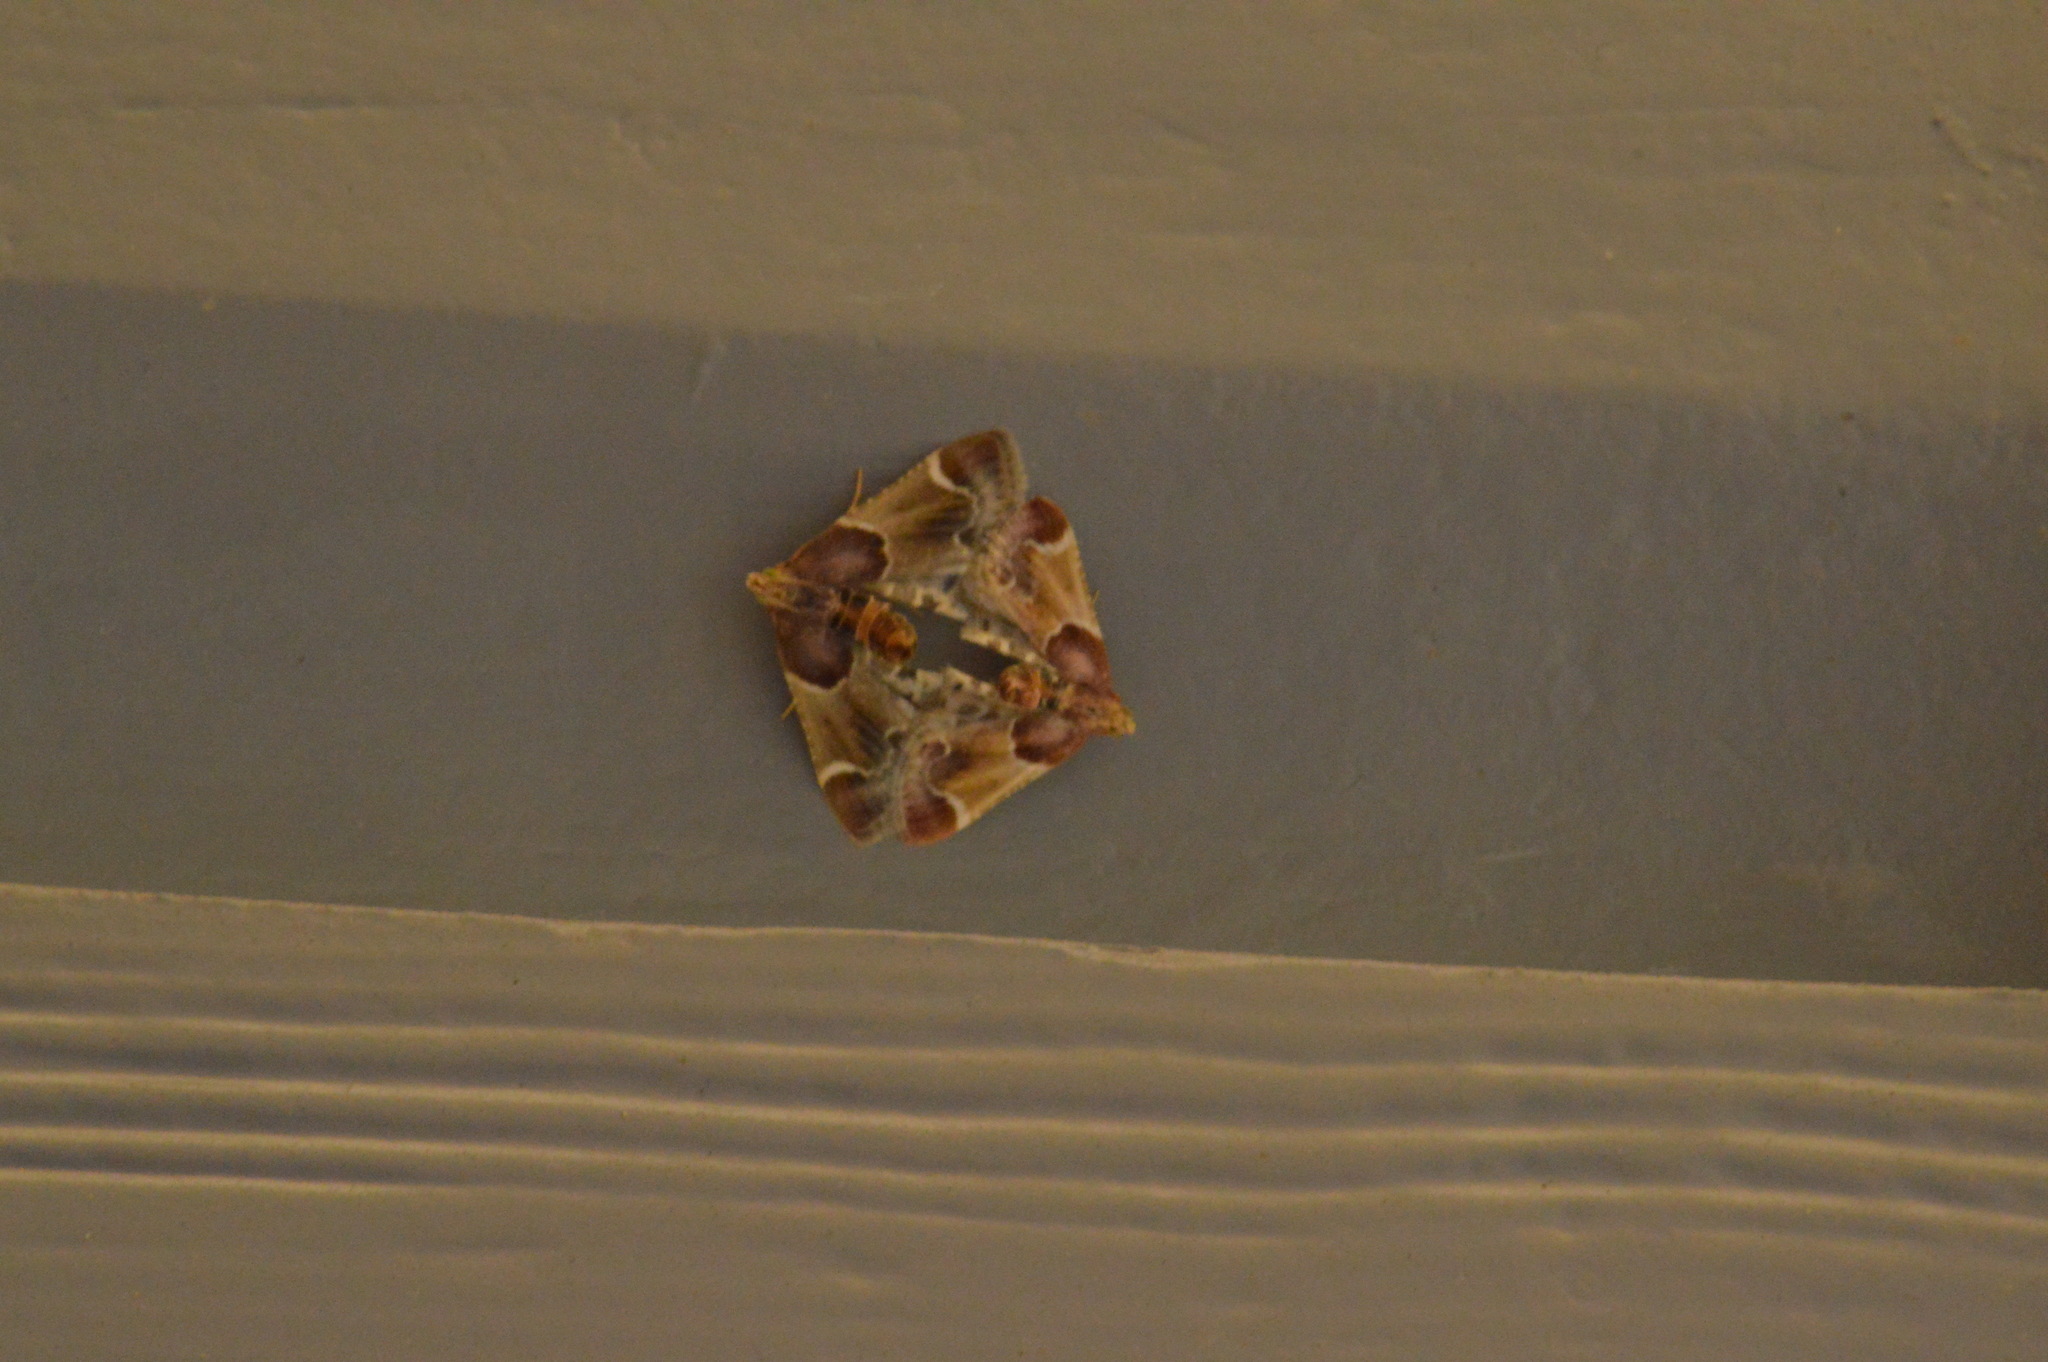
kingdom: Animalia
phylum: Arthropoda
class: Insecta
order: Lepidoptera
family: Pyralidae
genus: Pyralis
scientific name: Pyralis farinalis
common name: Meal moth
